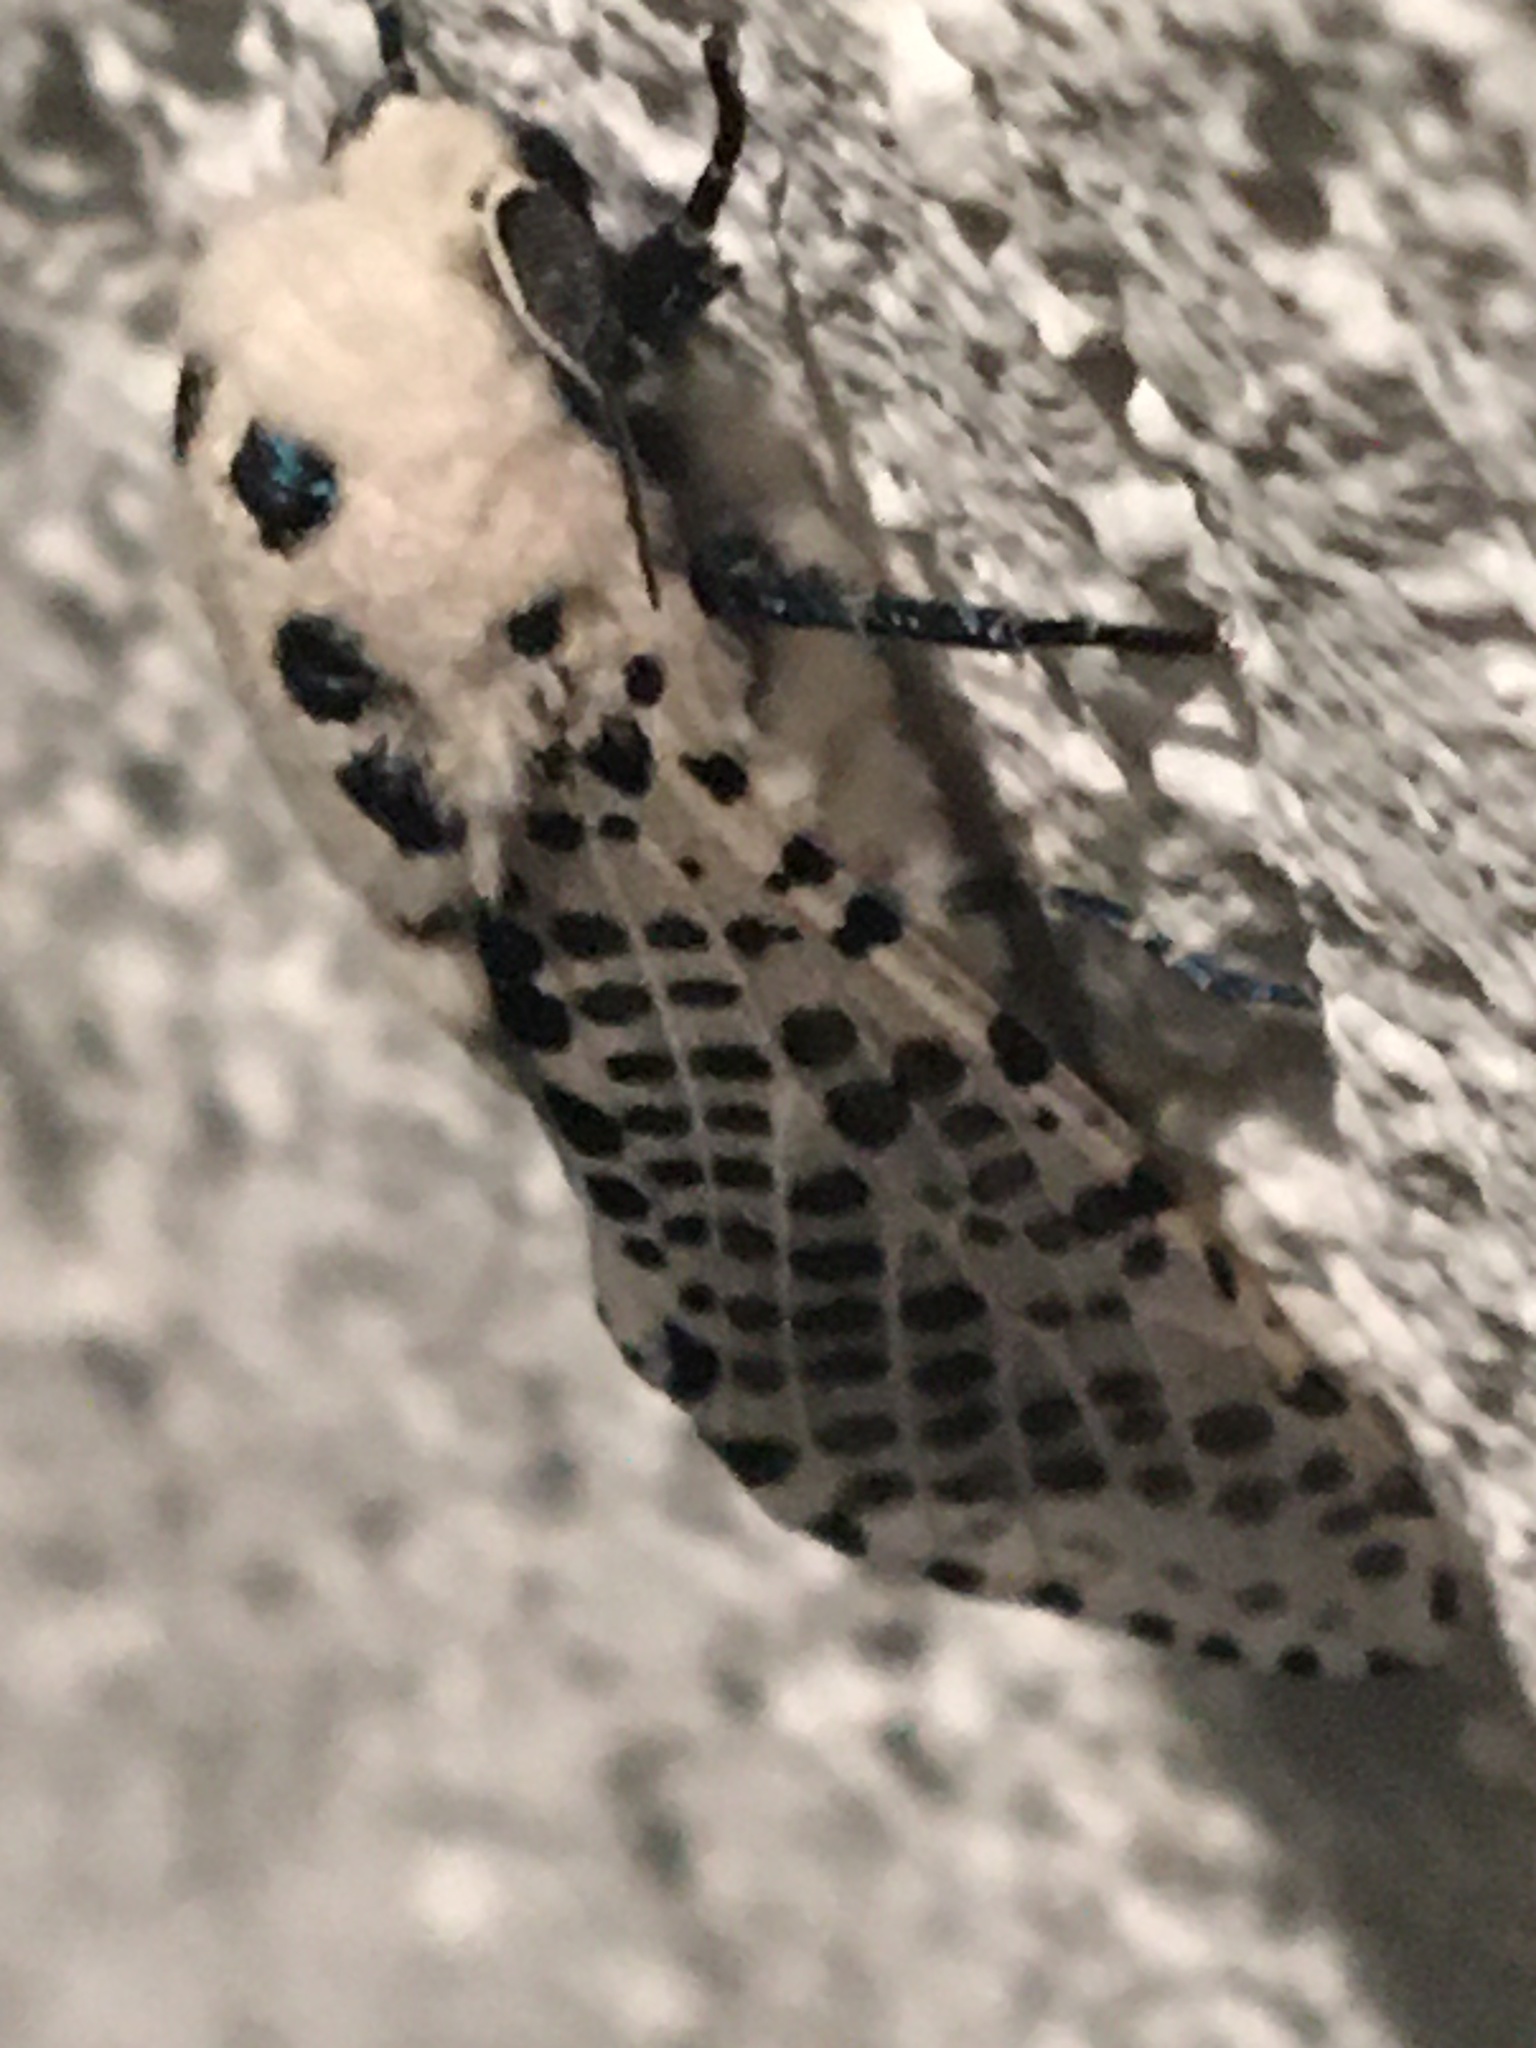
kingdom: Animalia
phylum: Arthropoda
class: Insecta
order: Lepidoptera
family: Cossidae
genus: Zeuzera
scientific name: Zeuzera pyrina
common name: Leopard moth
